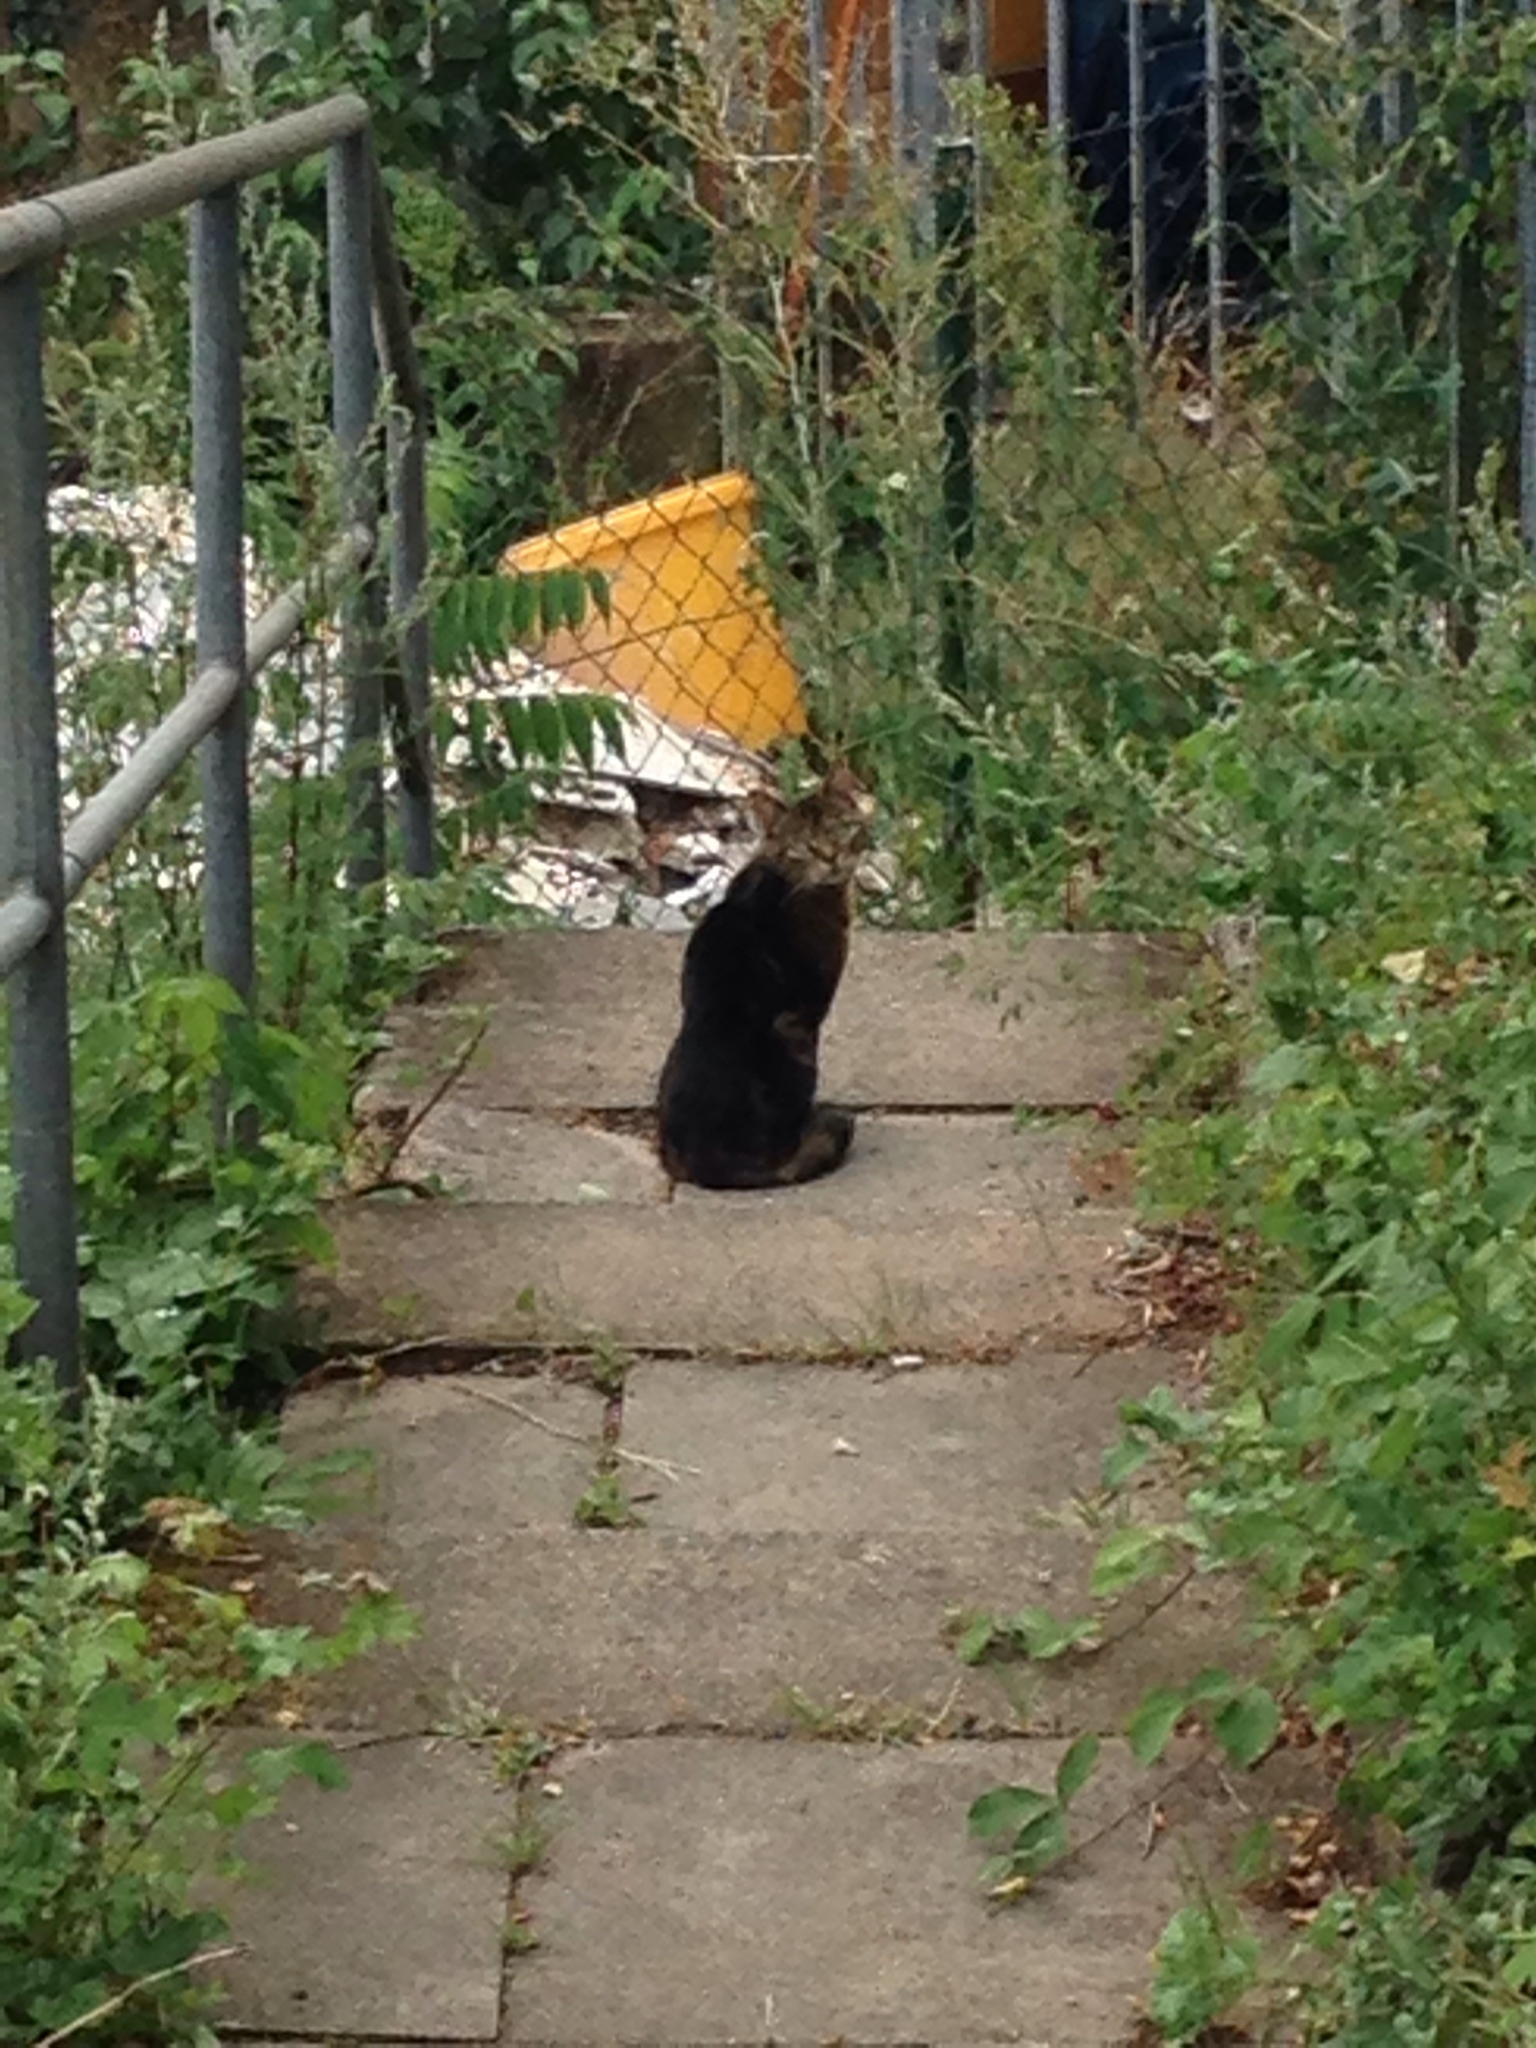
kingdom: Animalia
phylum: Chordata
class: Mammalia
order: Carnivora
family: Felidae
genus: Felis
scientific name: Felis catus
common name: Domestic cat
